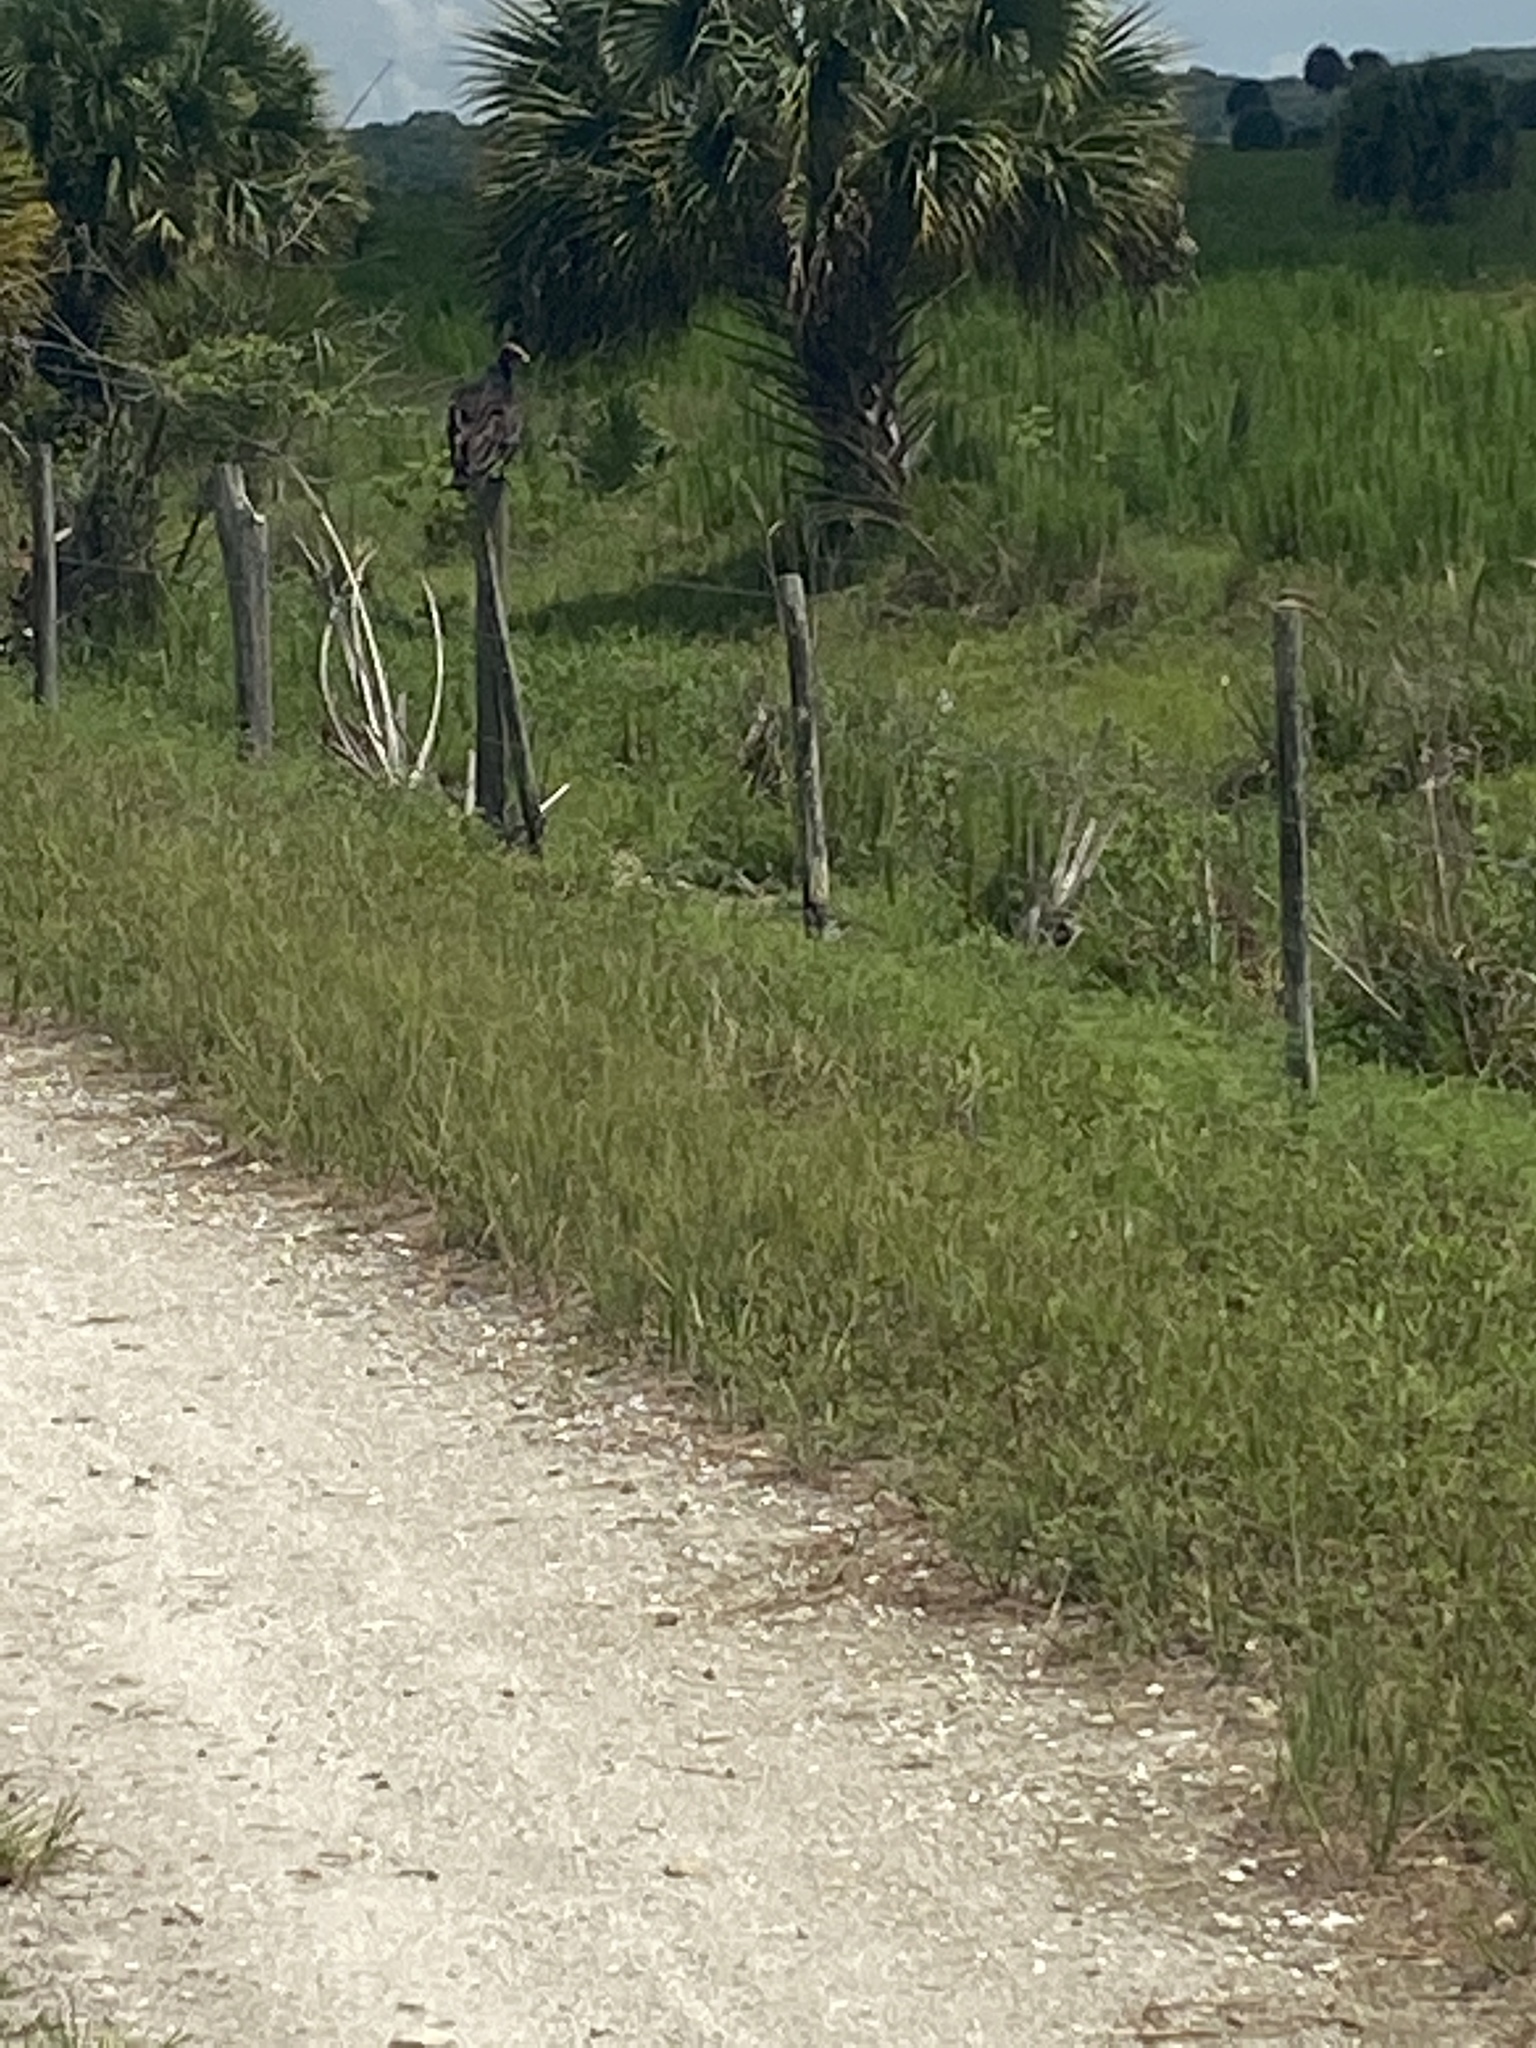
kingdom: Animalia
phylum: Chordata
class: Aves
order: Accipitriformes
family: Cathartidae
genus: Cathartes
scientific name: Cathartes aura
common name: Turkey vulture
